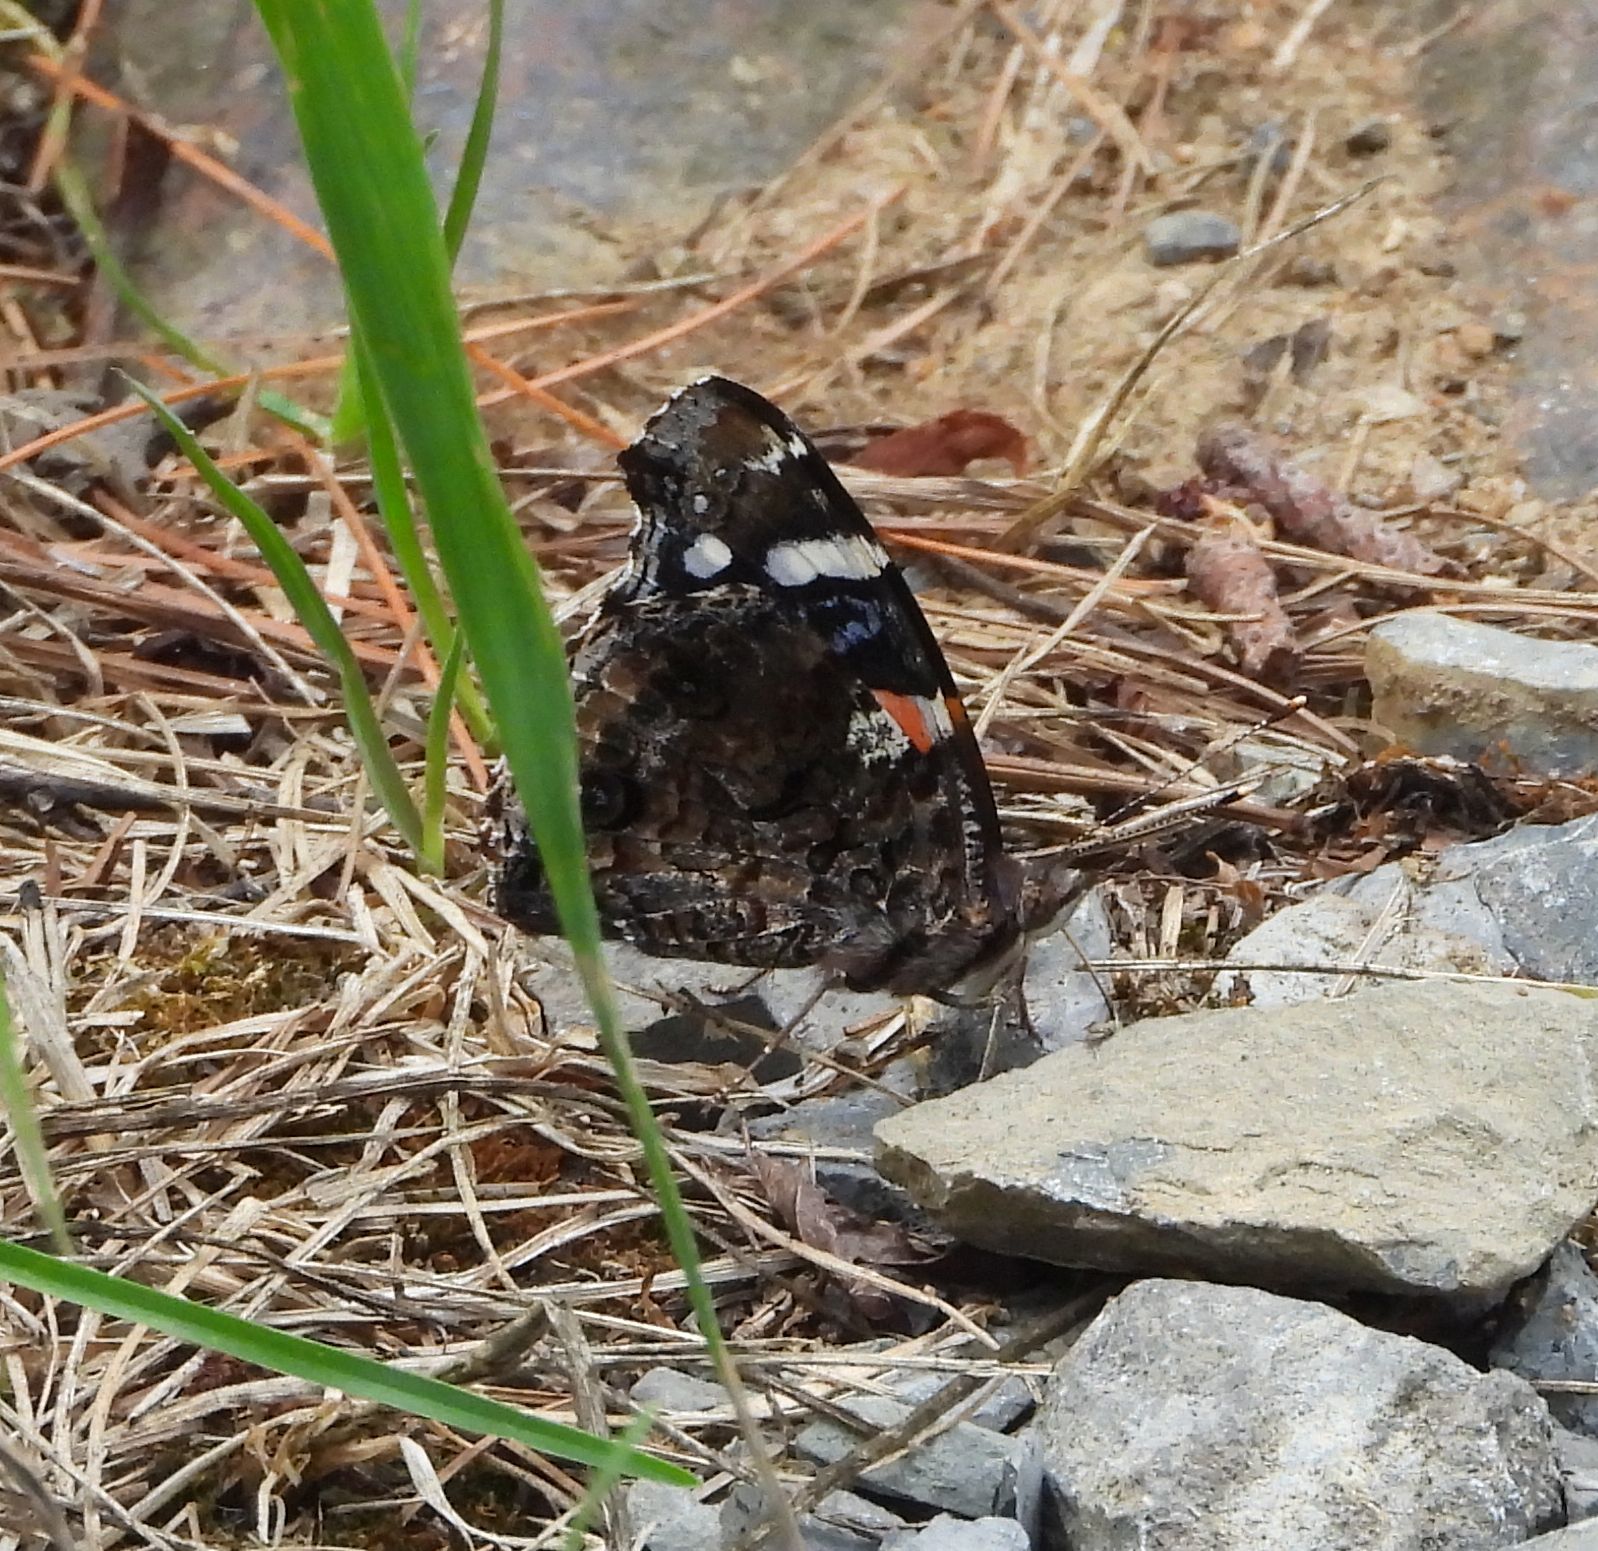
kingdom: Animalia
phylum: Arthropoda
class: Insecta
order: Lepidoptera
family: Nymphalidae
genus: Vanessa
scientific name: Vanessa atalanta
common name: Red admiral
